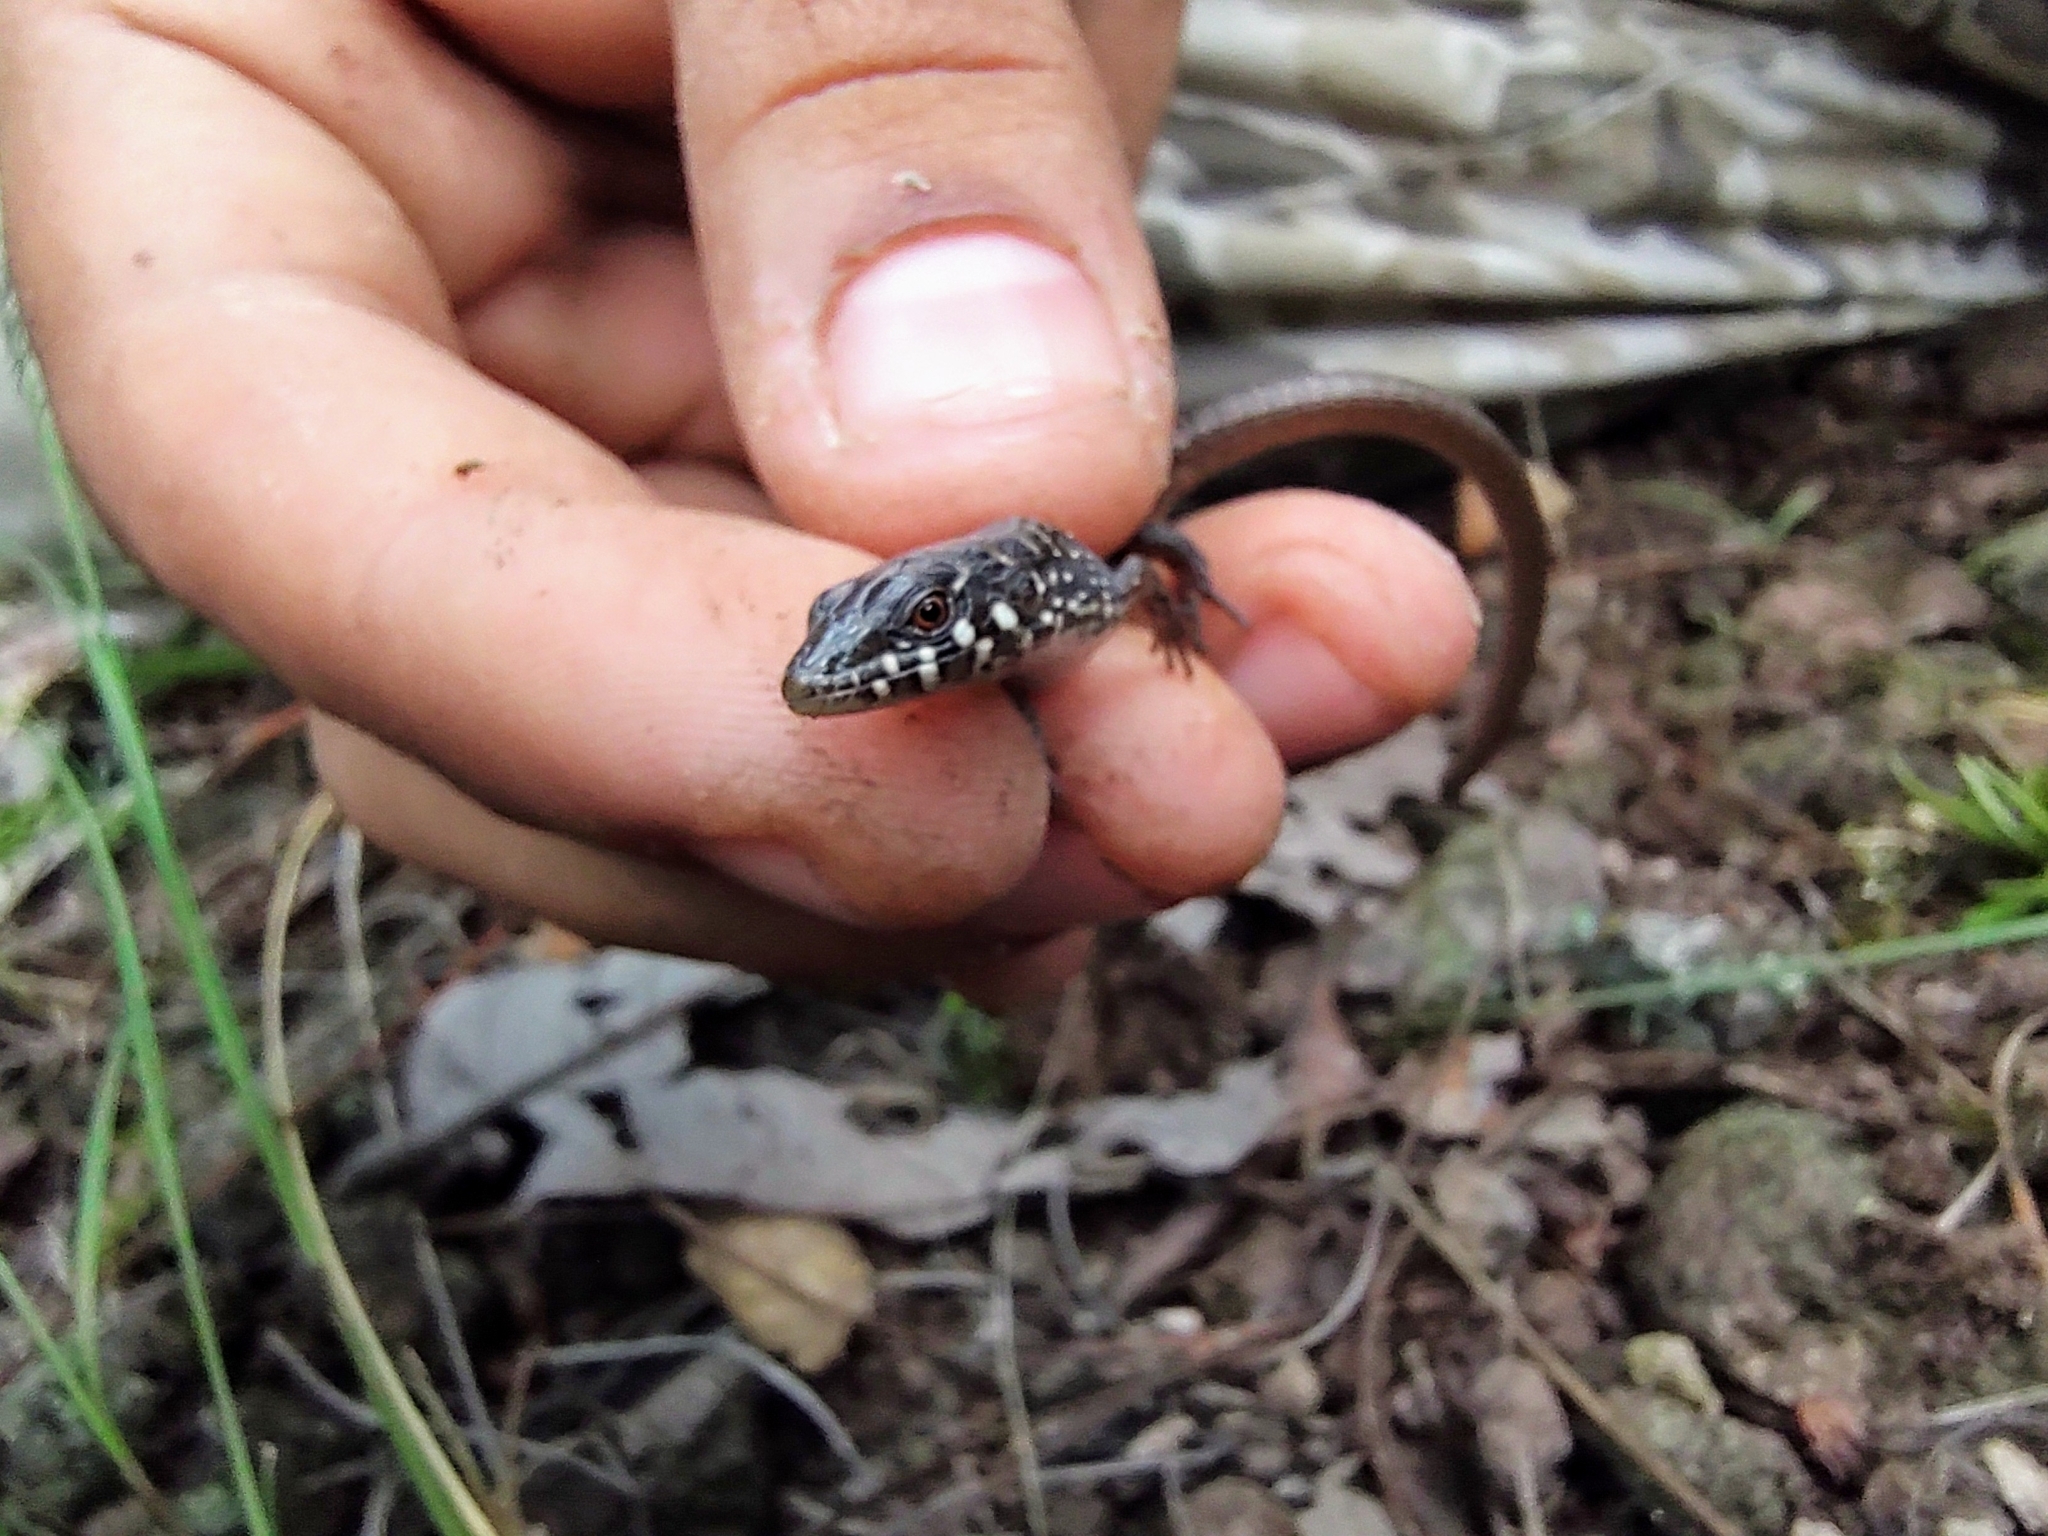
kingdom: Animalia
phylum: Chordata
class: Squamata
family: Anguidae
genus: Elgaria
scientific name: Elgaria kingii
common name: Madrean alligator lizard
